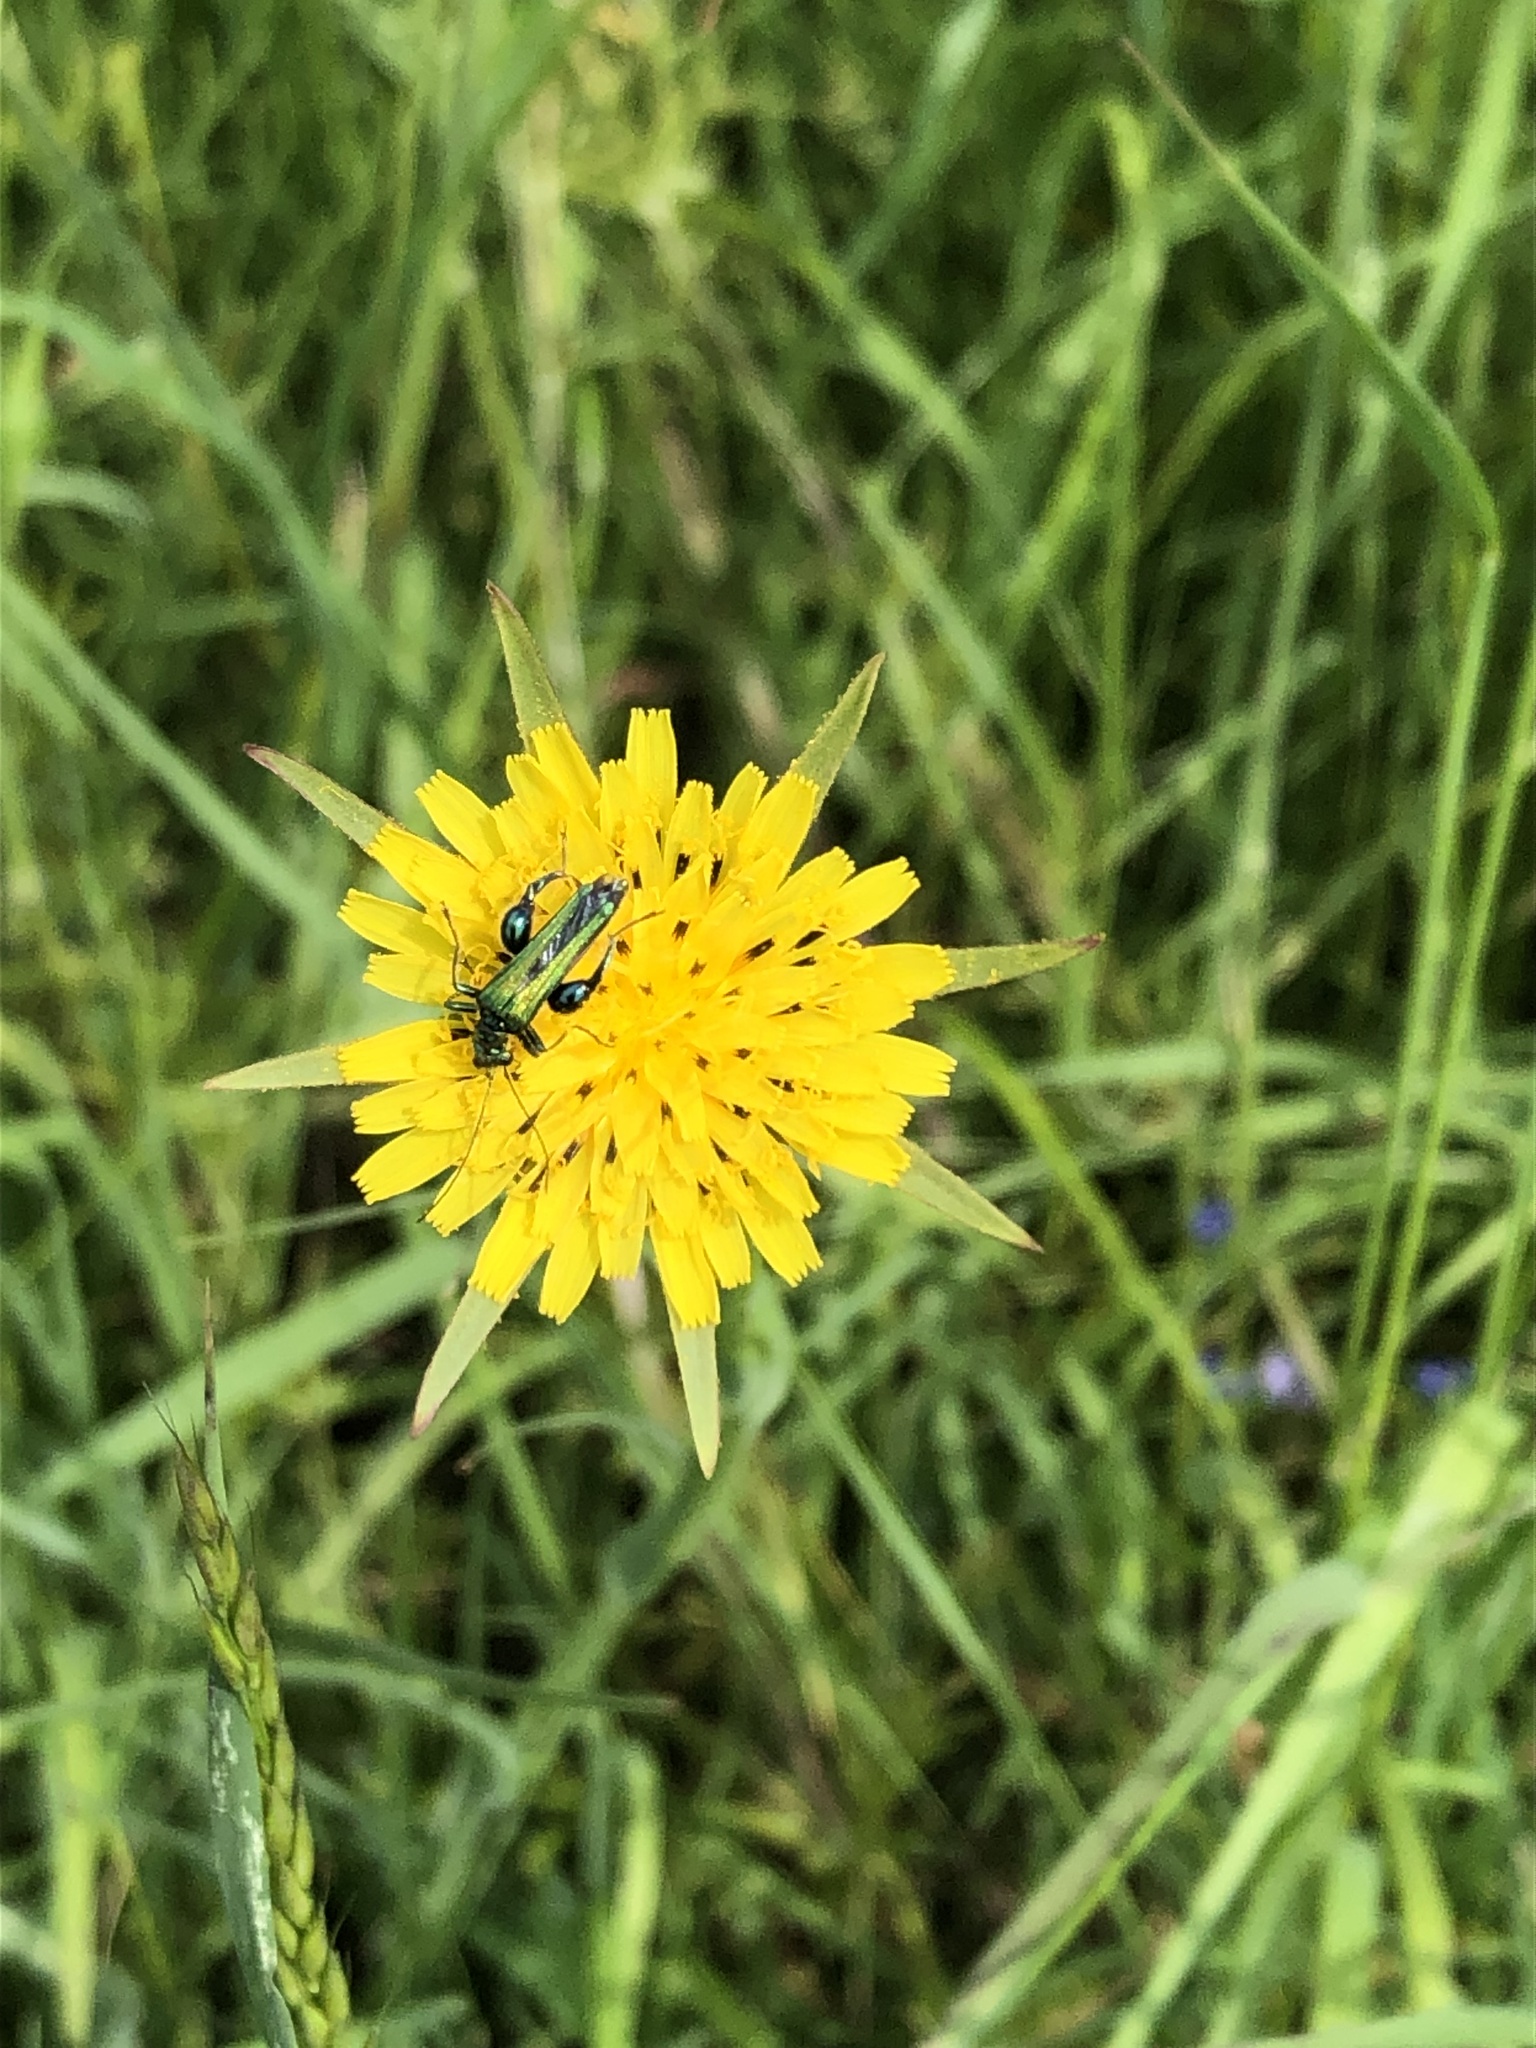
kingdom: Animalia
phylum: Arthropoda
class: Insecta
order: Coleoptera
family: Oedemeridae
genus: Oedemera
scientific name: Oedemera nobilis
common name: Swollen-thighed beetle
